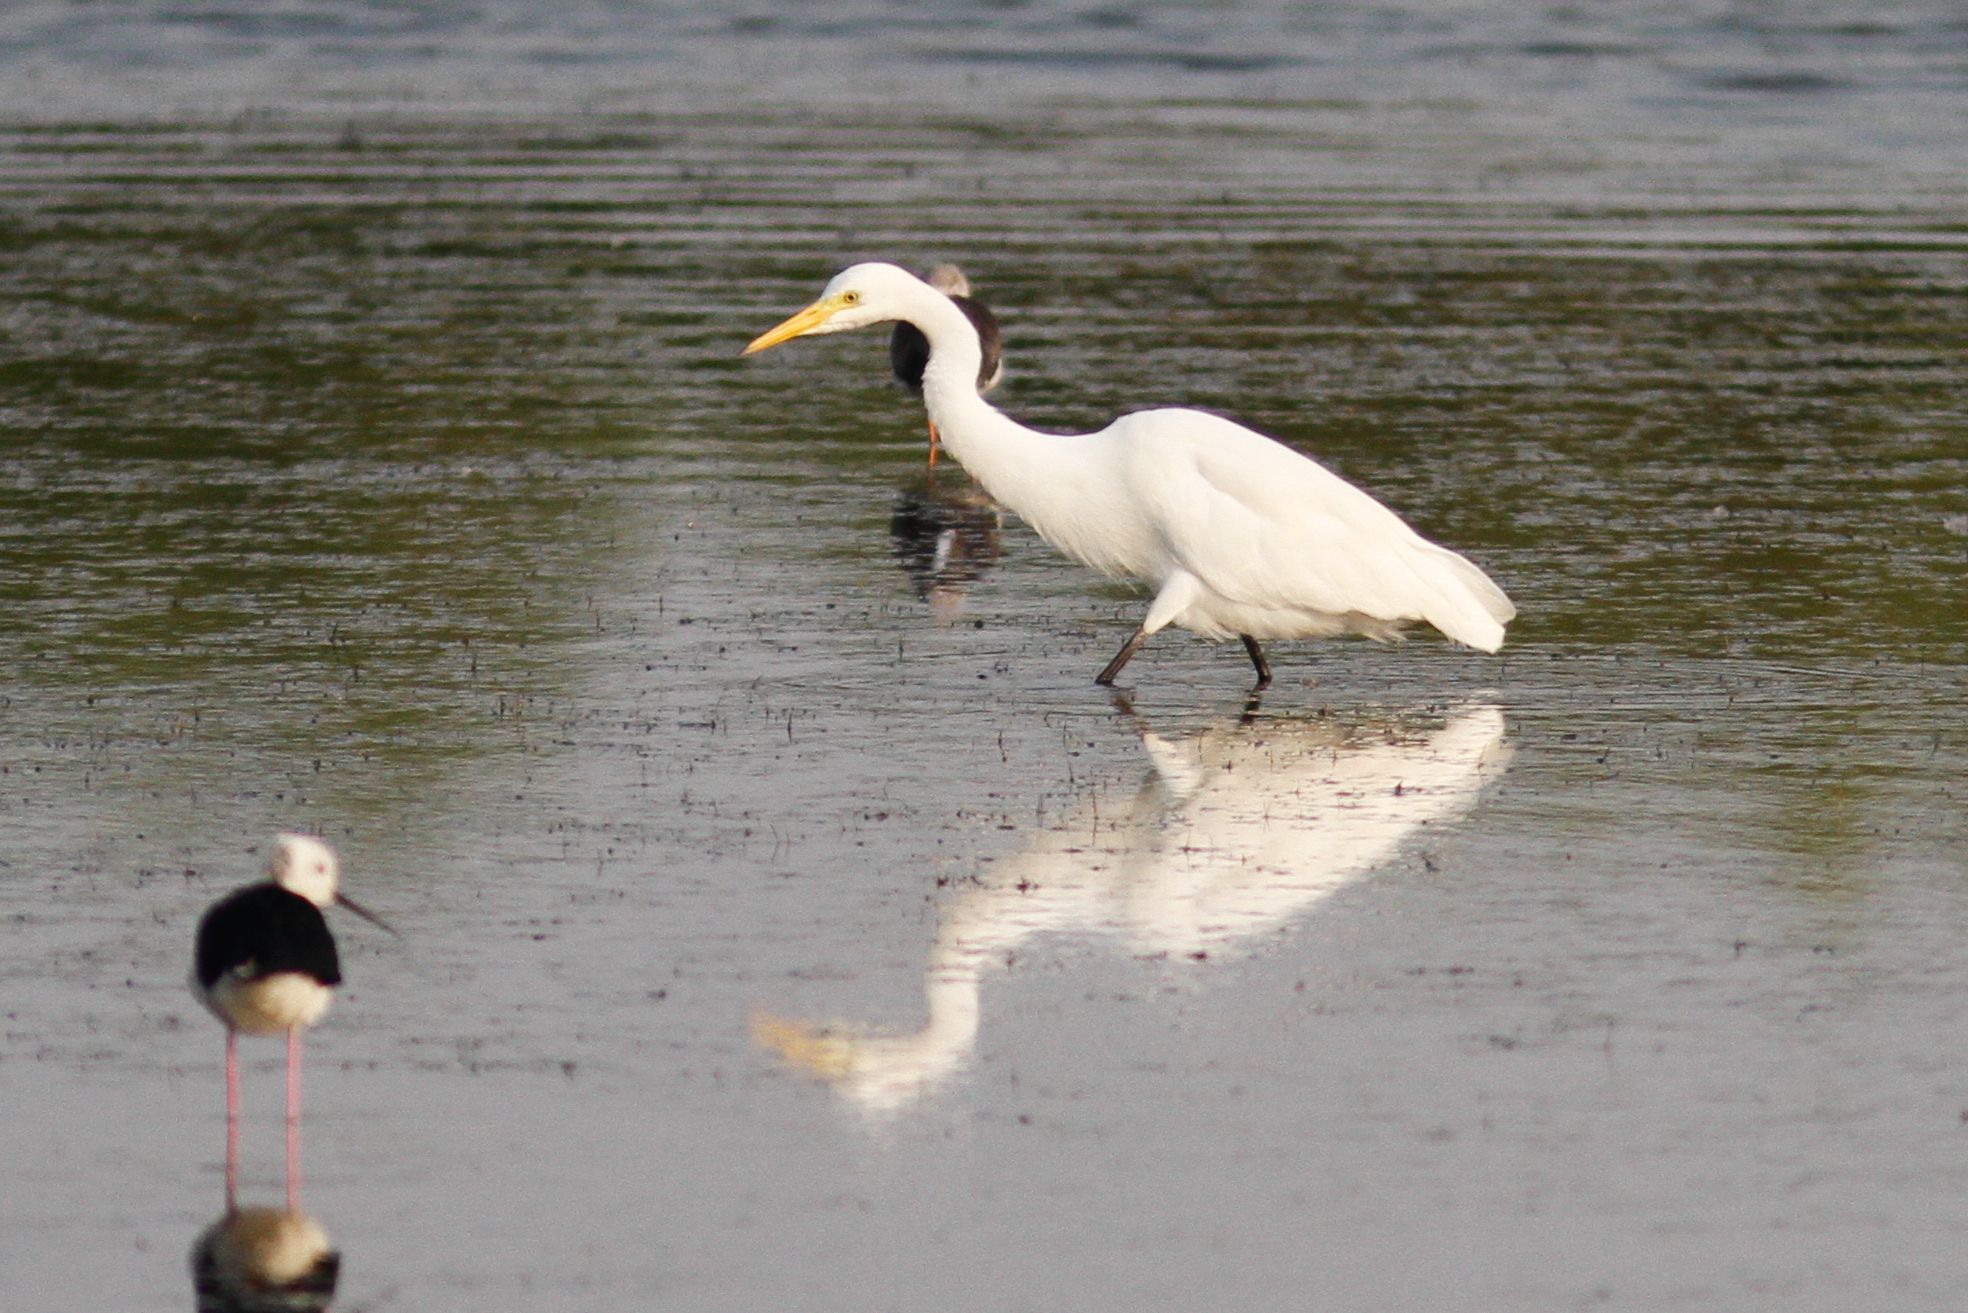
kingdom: Animalia
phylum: Chordata
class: Aves
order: Pelecaniformes
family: Ardeidae
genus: Ardea
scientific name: Ardea modesta
